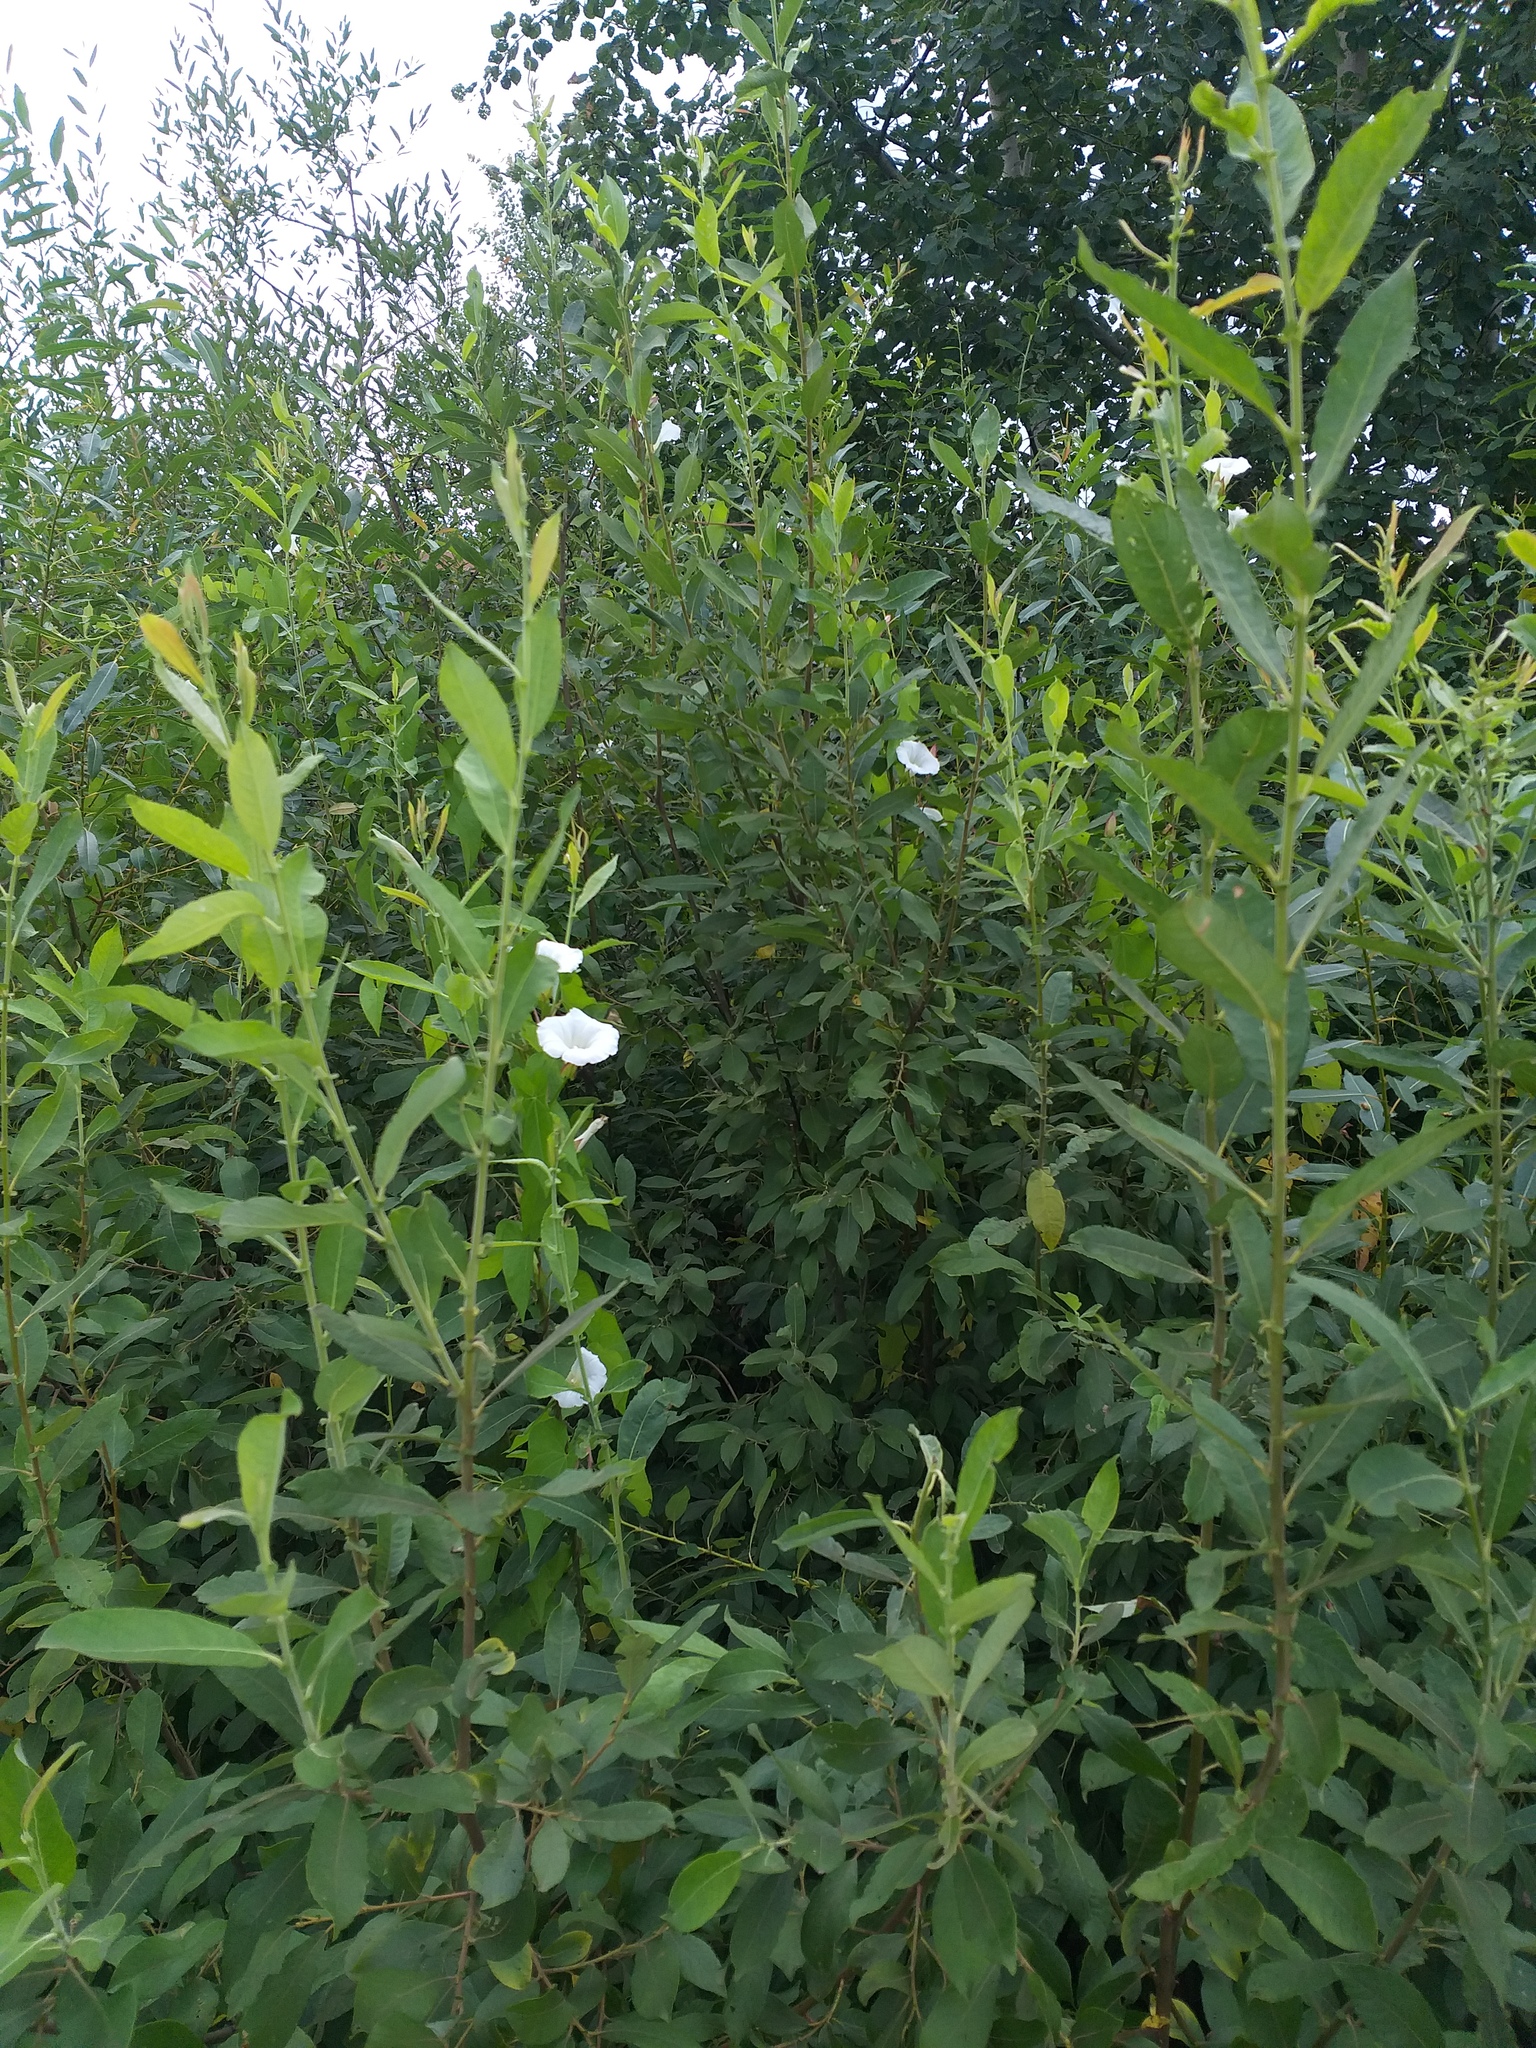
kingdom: Plantae
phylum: Tracheophyta
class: Magnoliopsida
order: Solanales
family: Convolvulaceae
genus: Calystegia
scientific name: Calystegia sepium
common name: Hedge bindweed
